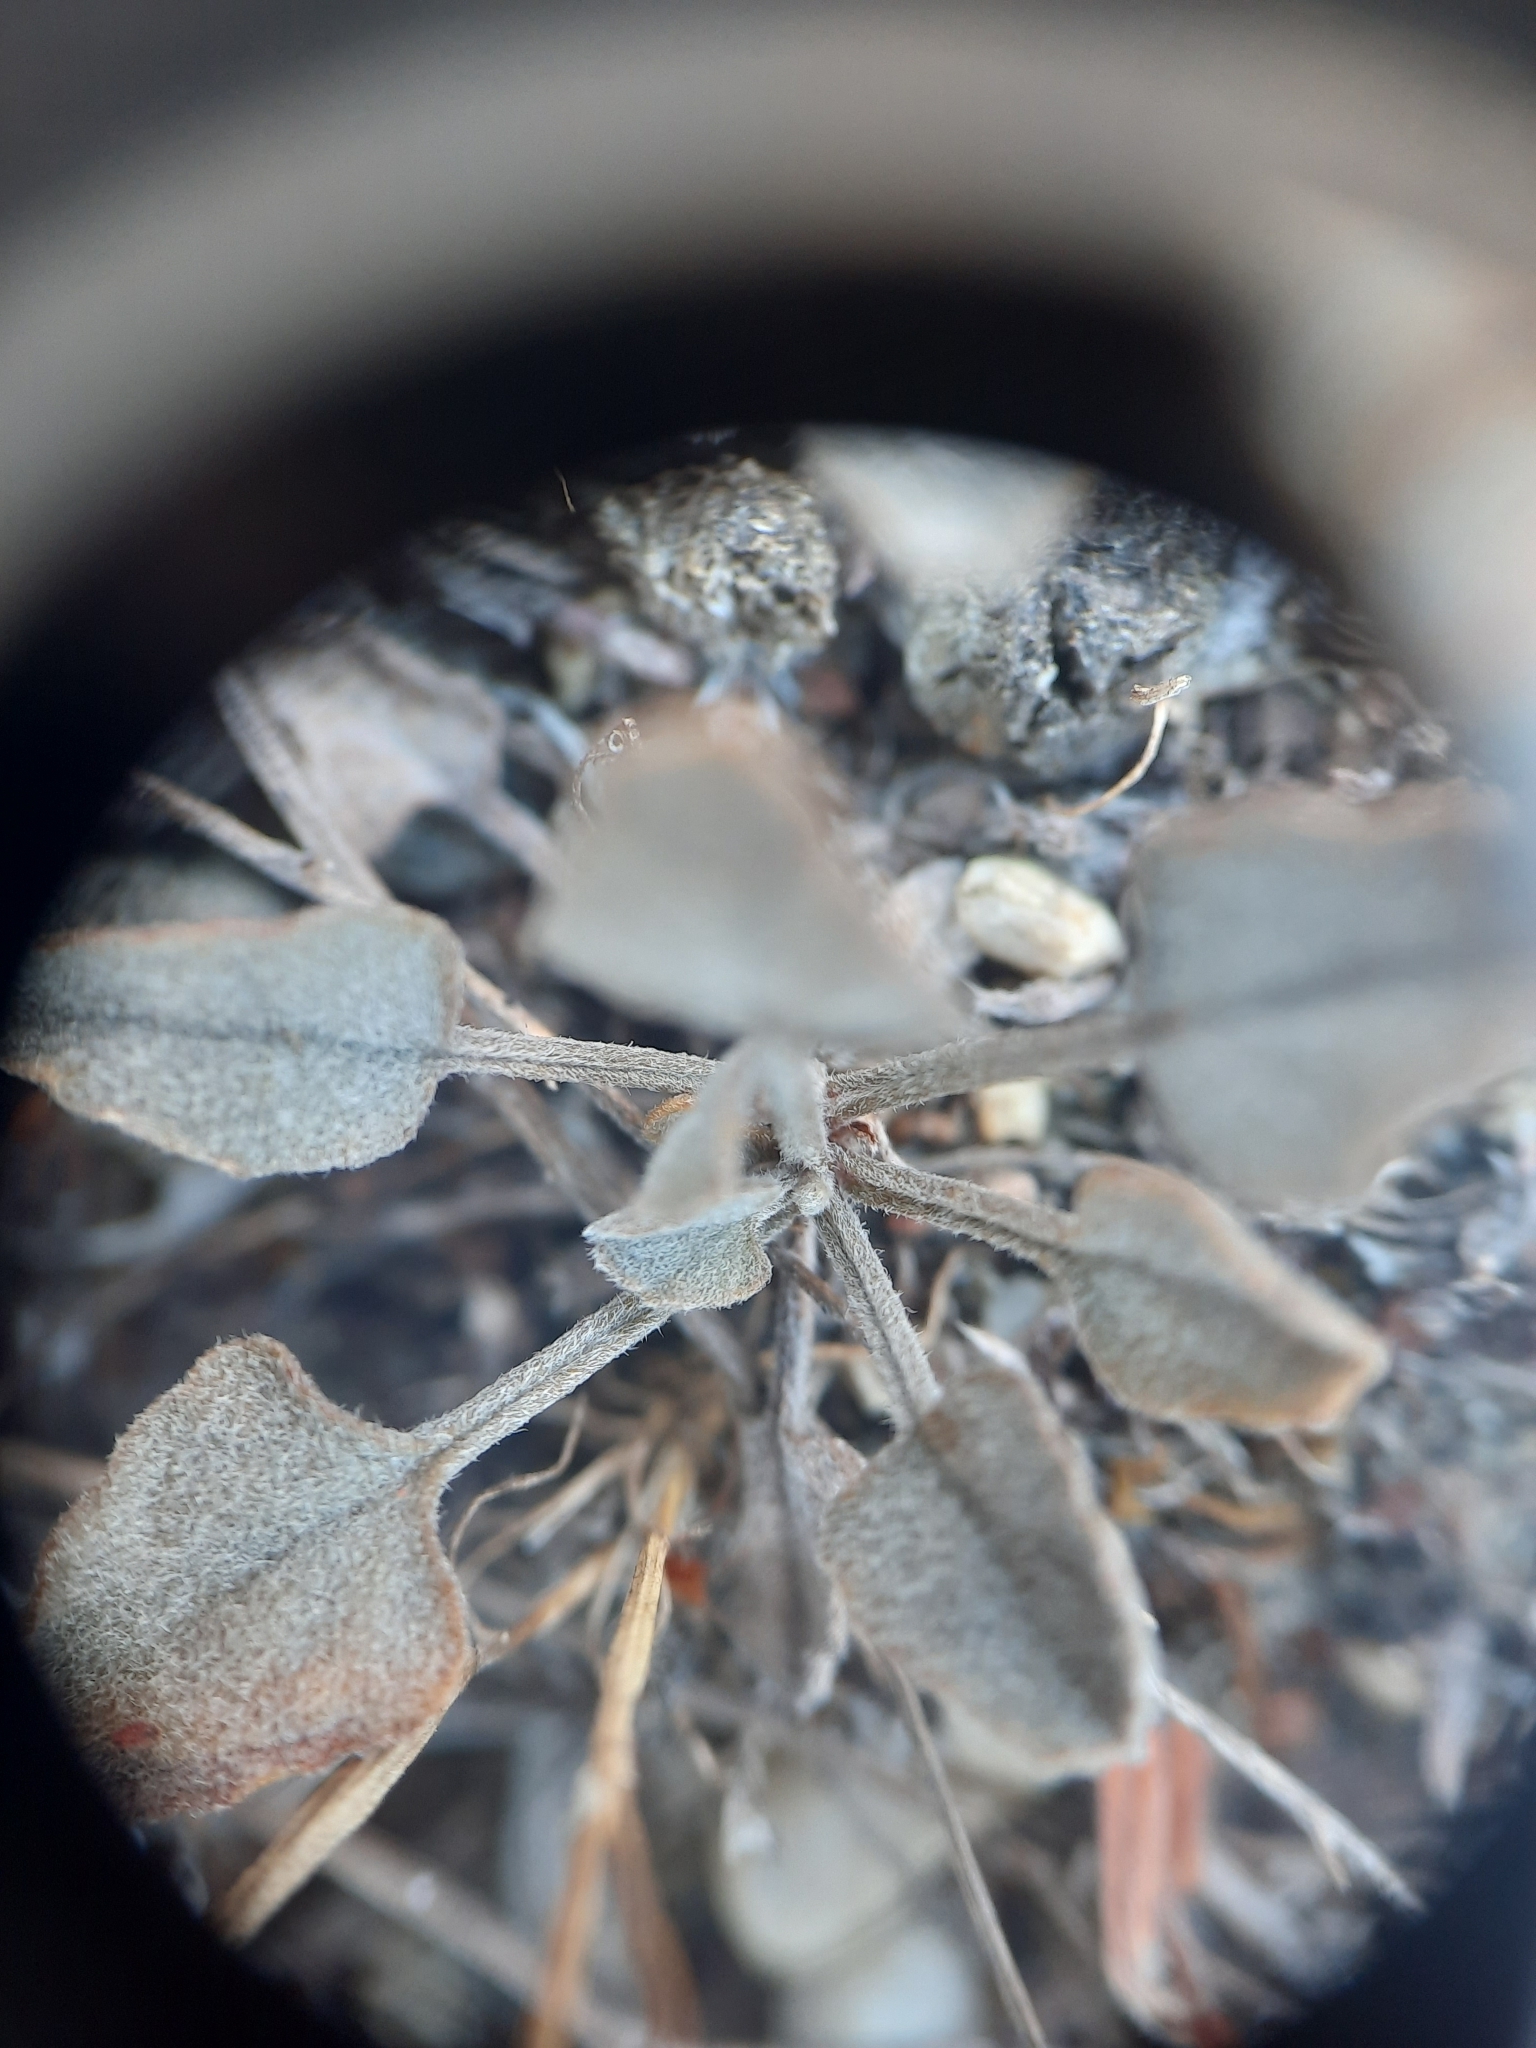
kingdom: Plantae
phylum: Tracheophyta
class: Magnoliopsida
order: Solanales
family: Convolvulaceae
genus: Convolvulus
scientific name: Convolvulus verecundus
